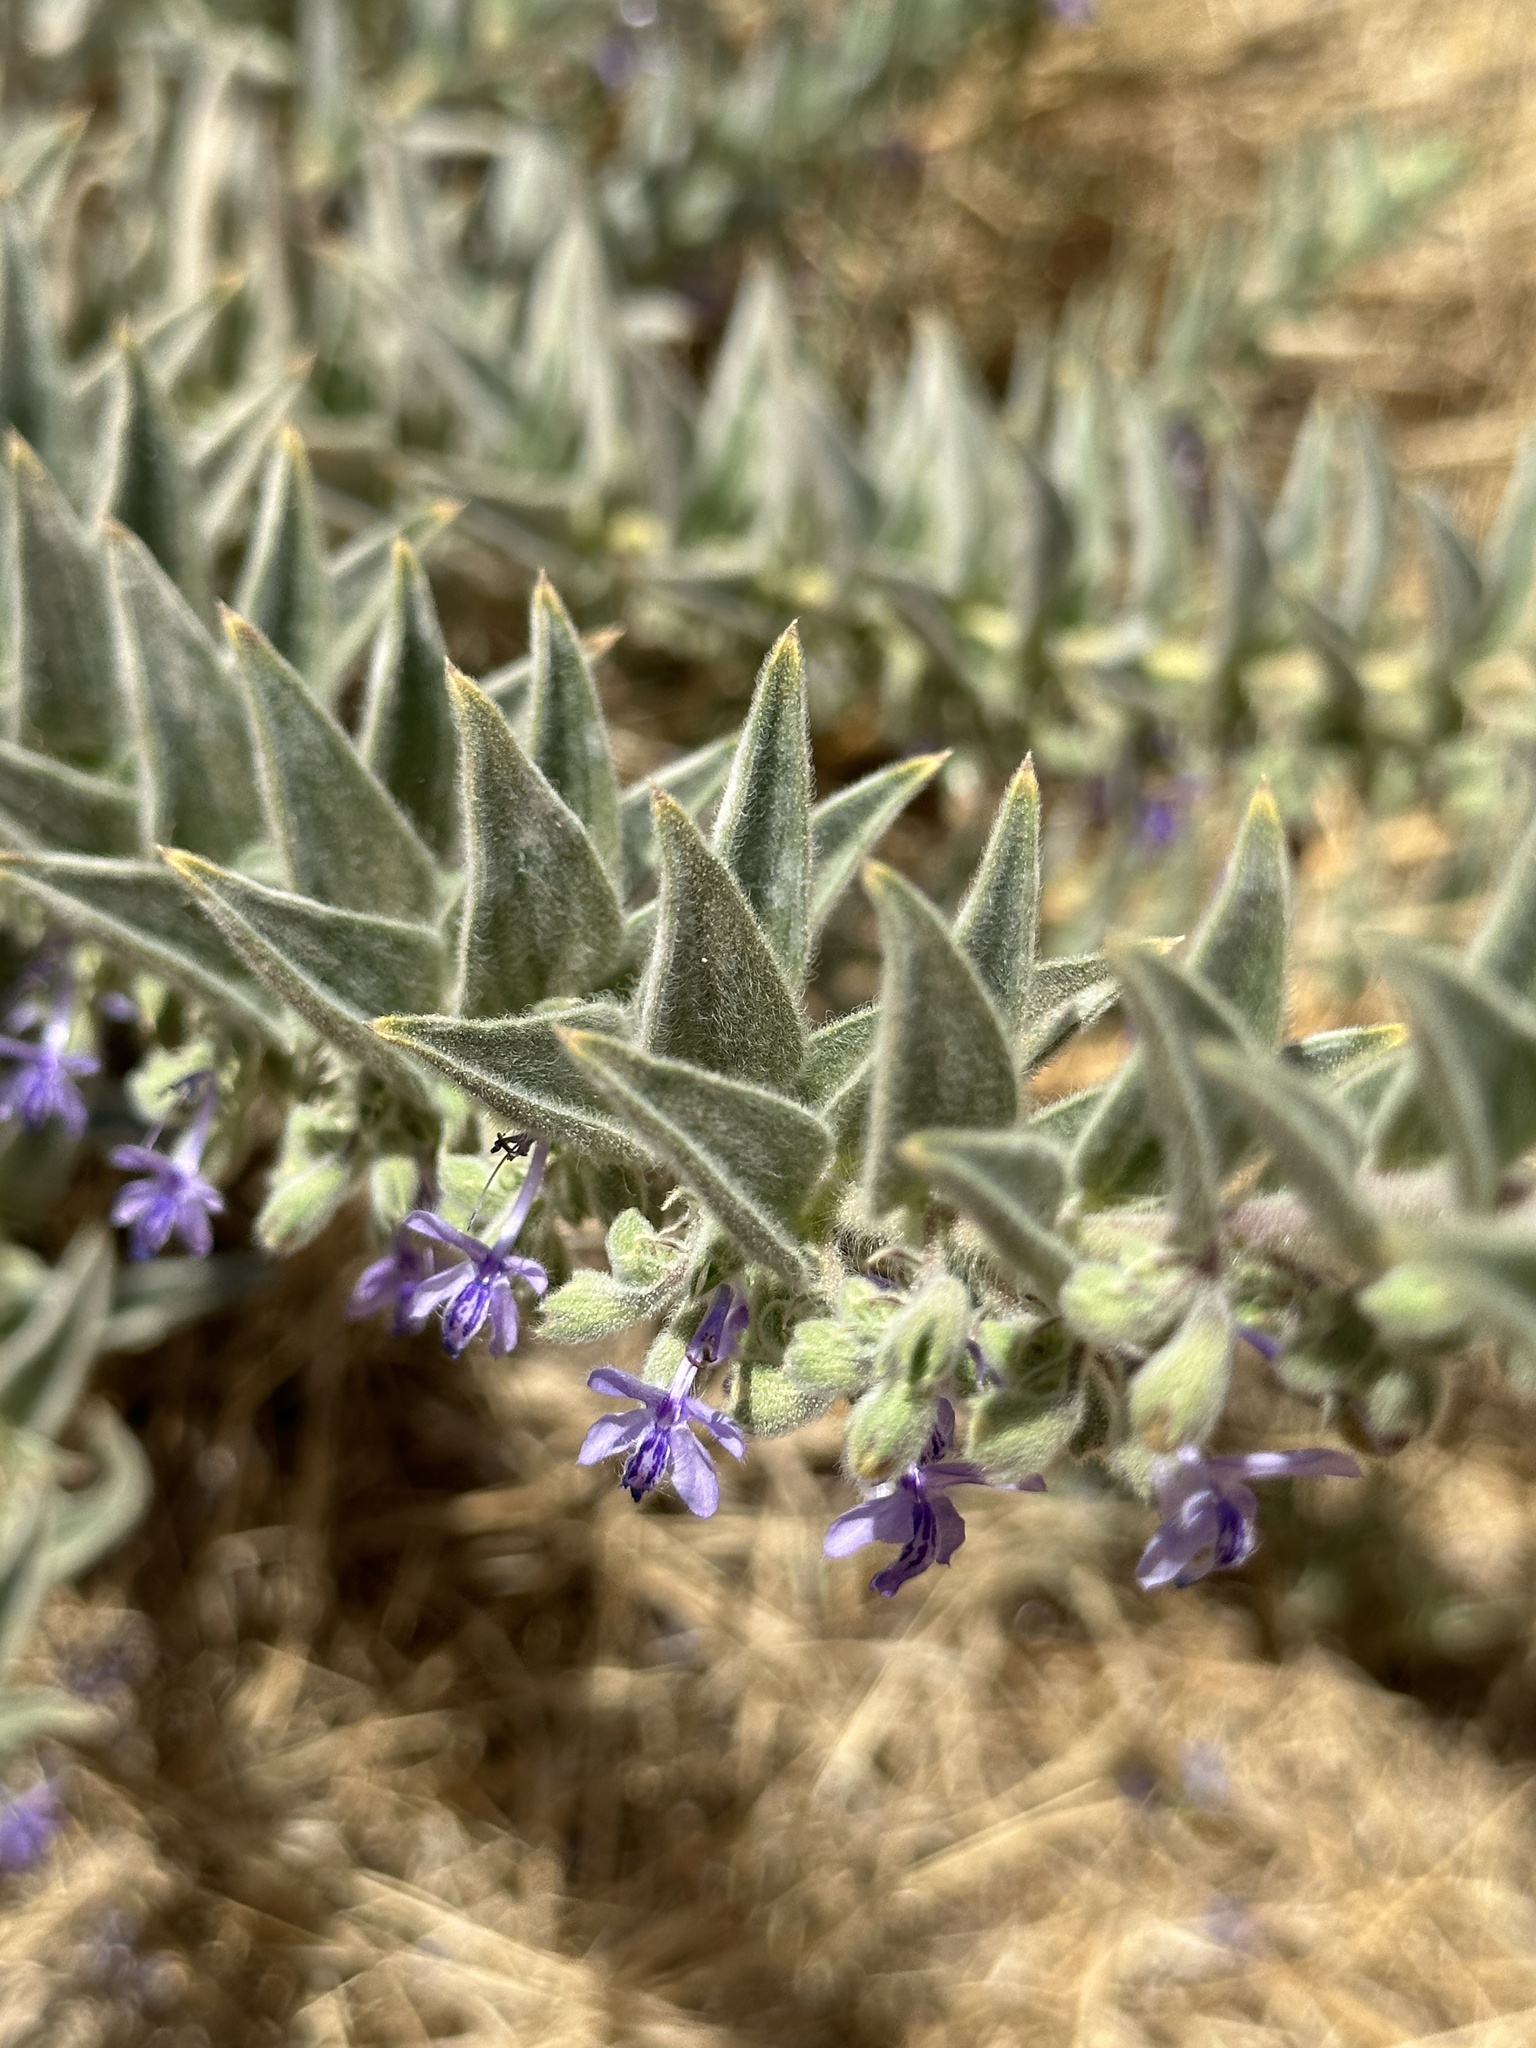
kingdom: Plantae
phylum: Tracheophyta
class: Magnoliopsida
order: Lamiales
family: Lamiaceae
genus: Trichostema
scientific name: Trichostema lanceolatum
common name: Vinegar-weed
